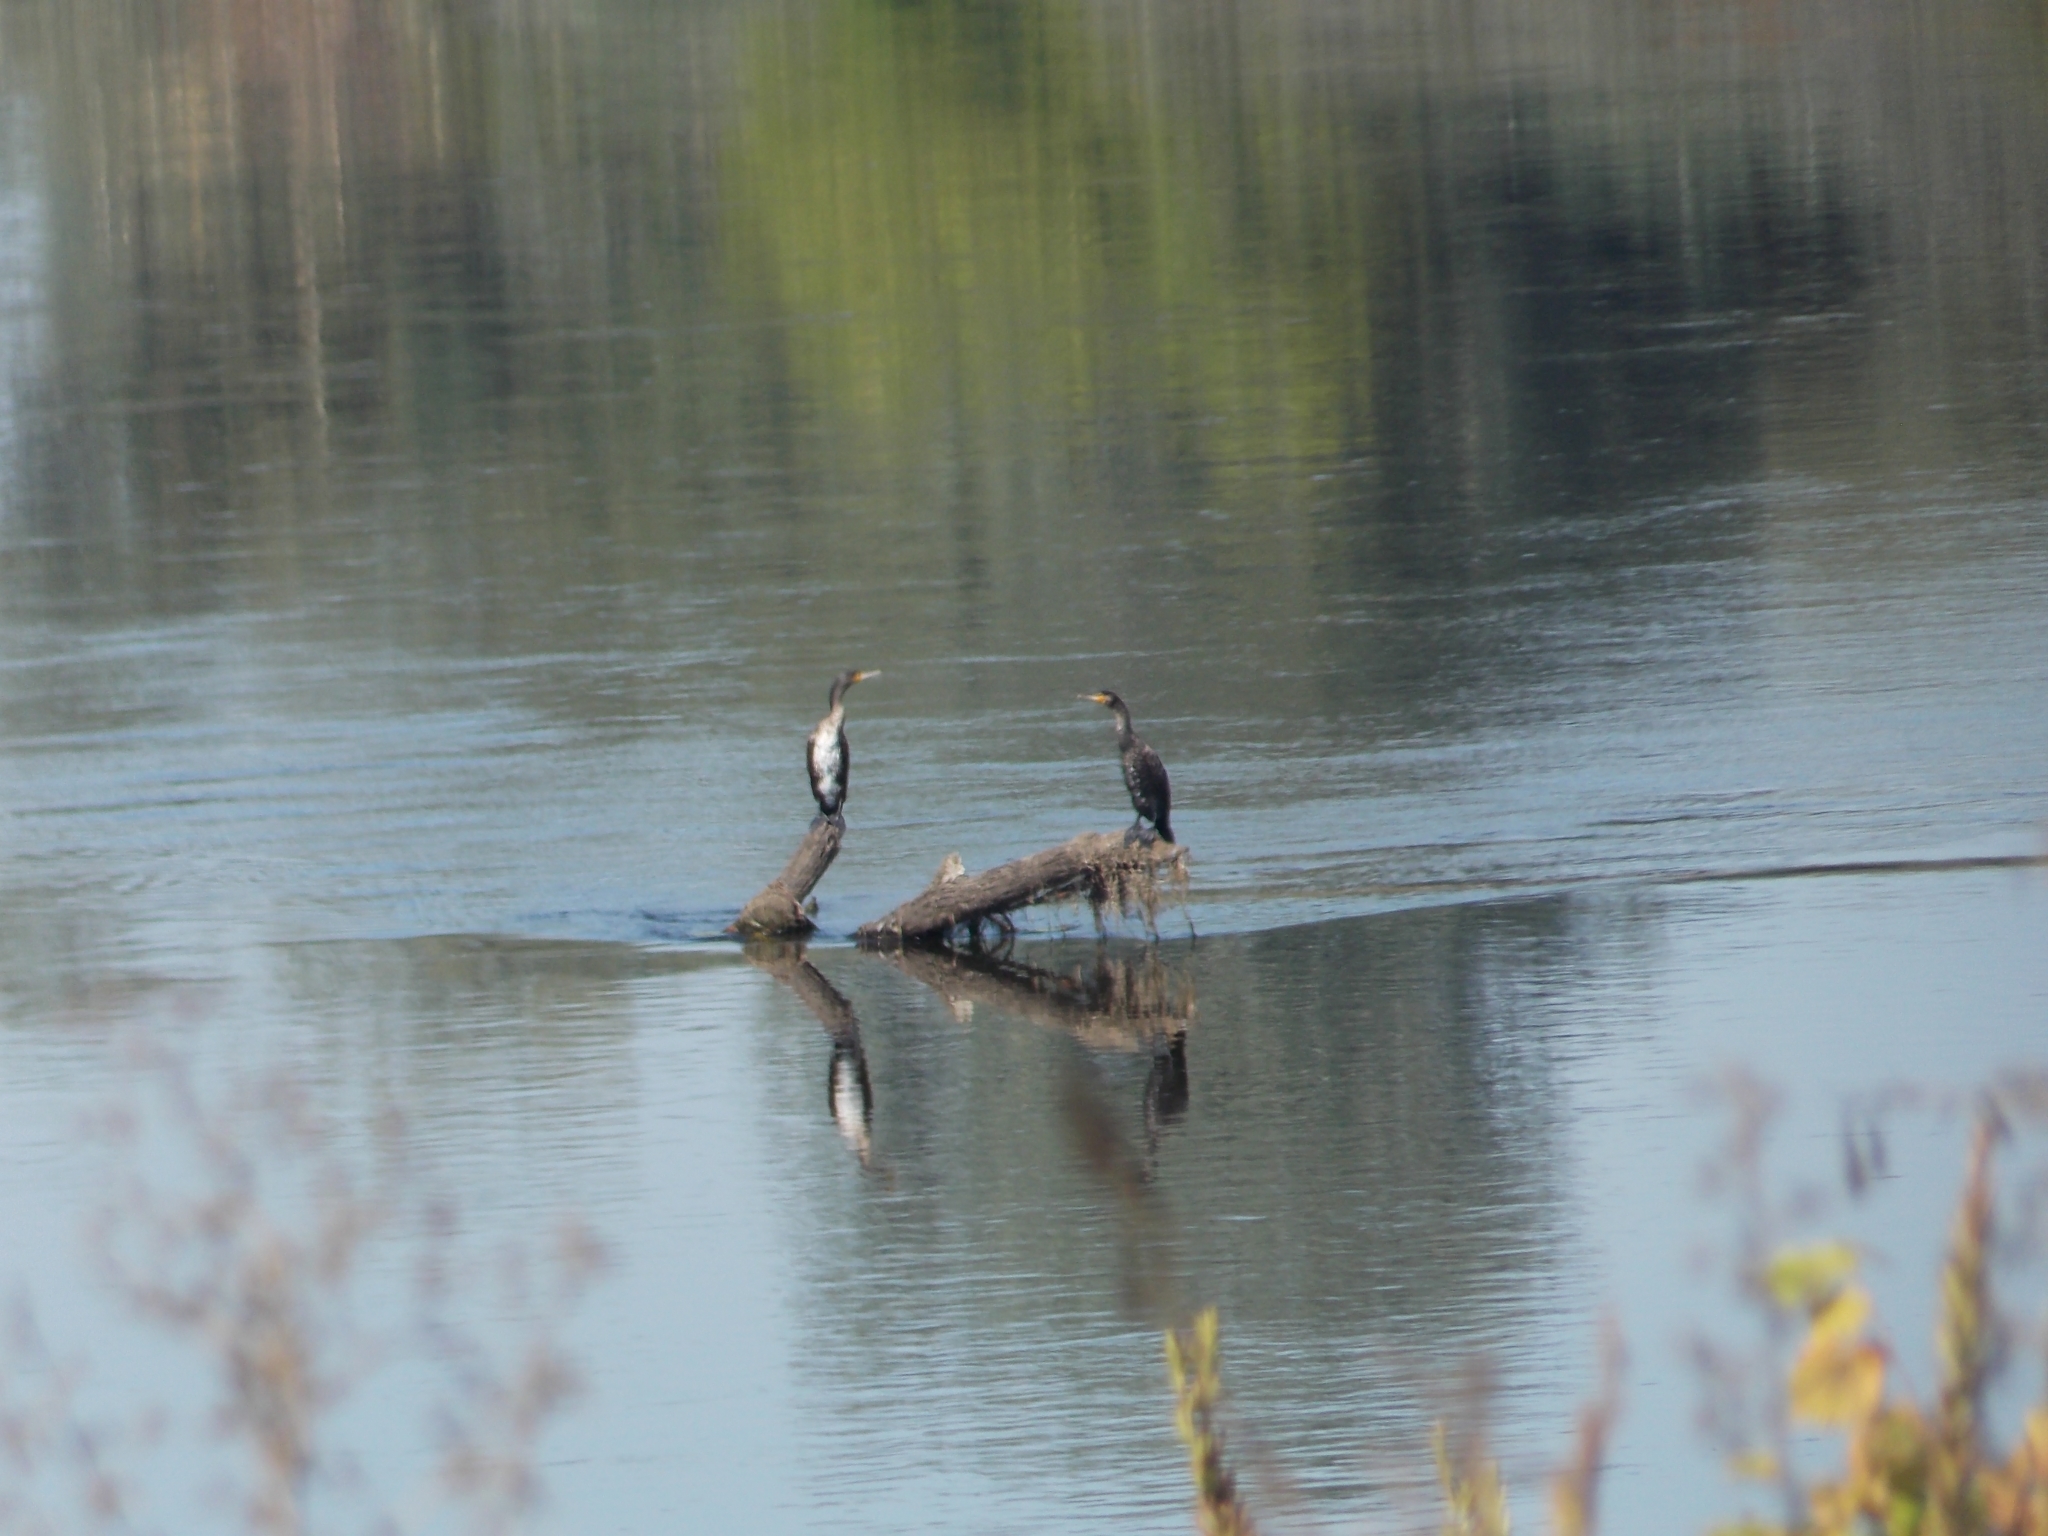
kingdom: Animalia
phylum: Chordata
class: Aves
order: Suliformes
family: Phalacrocoracidae
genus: Phalacrocorax
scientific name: Phalacrocorax carbo
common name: Great cormorant
